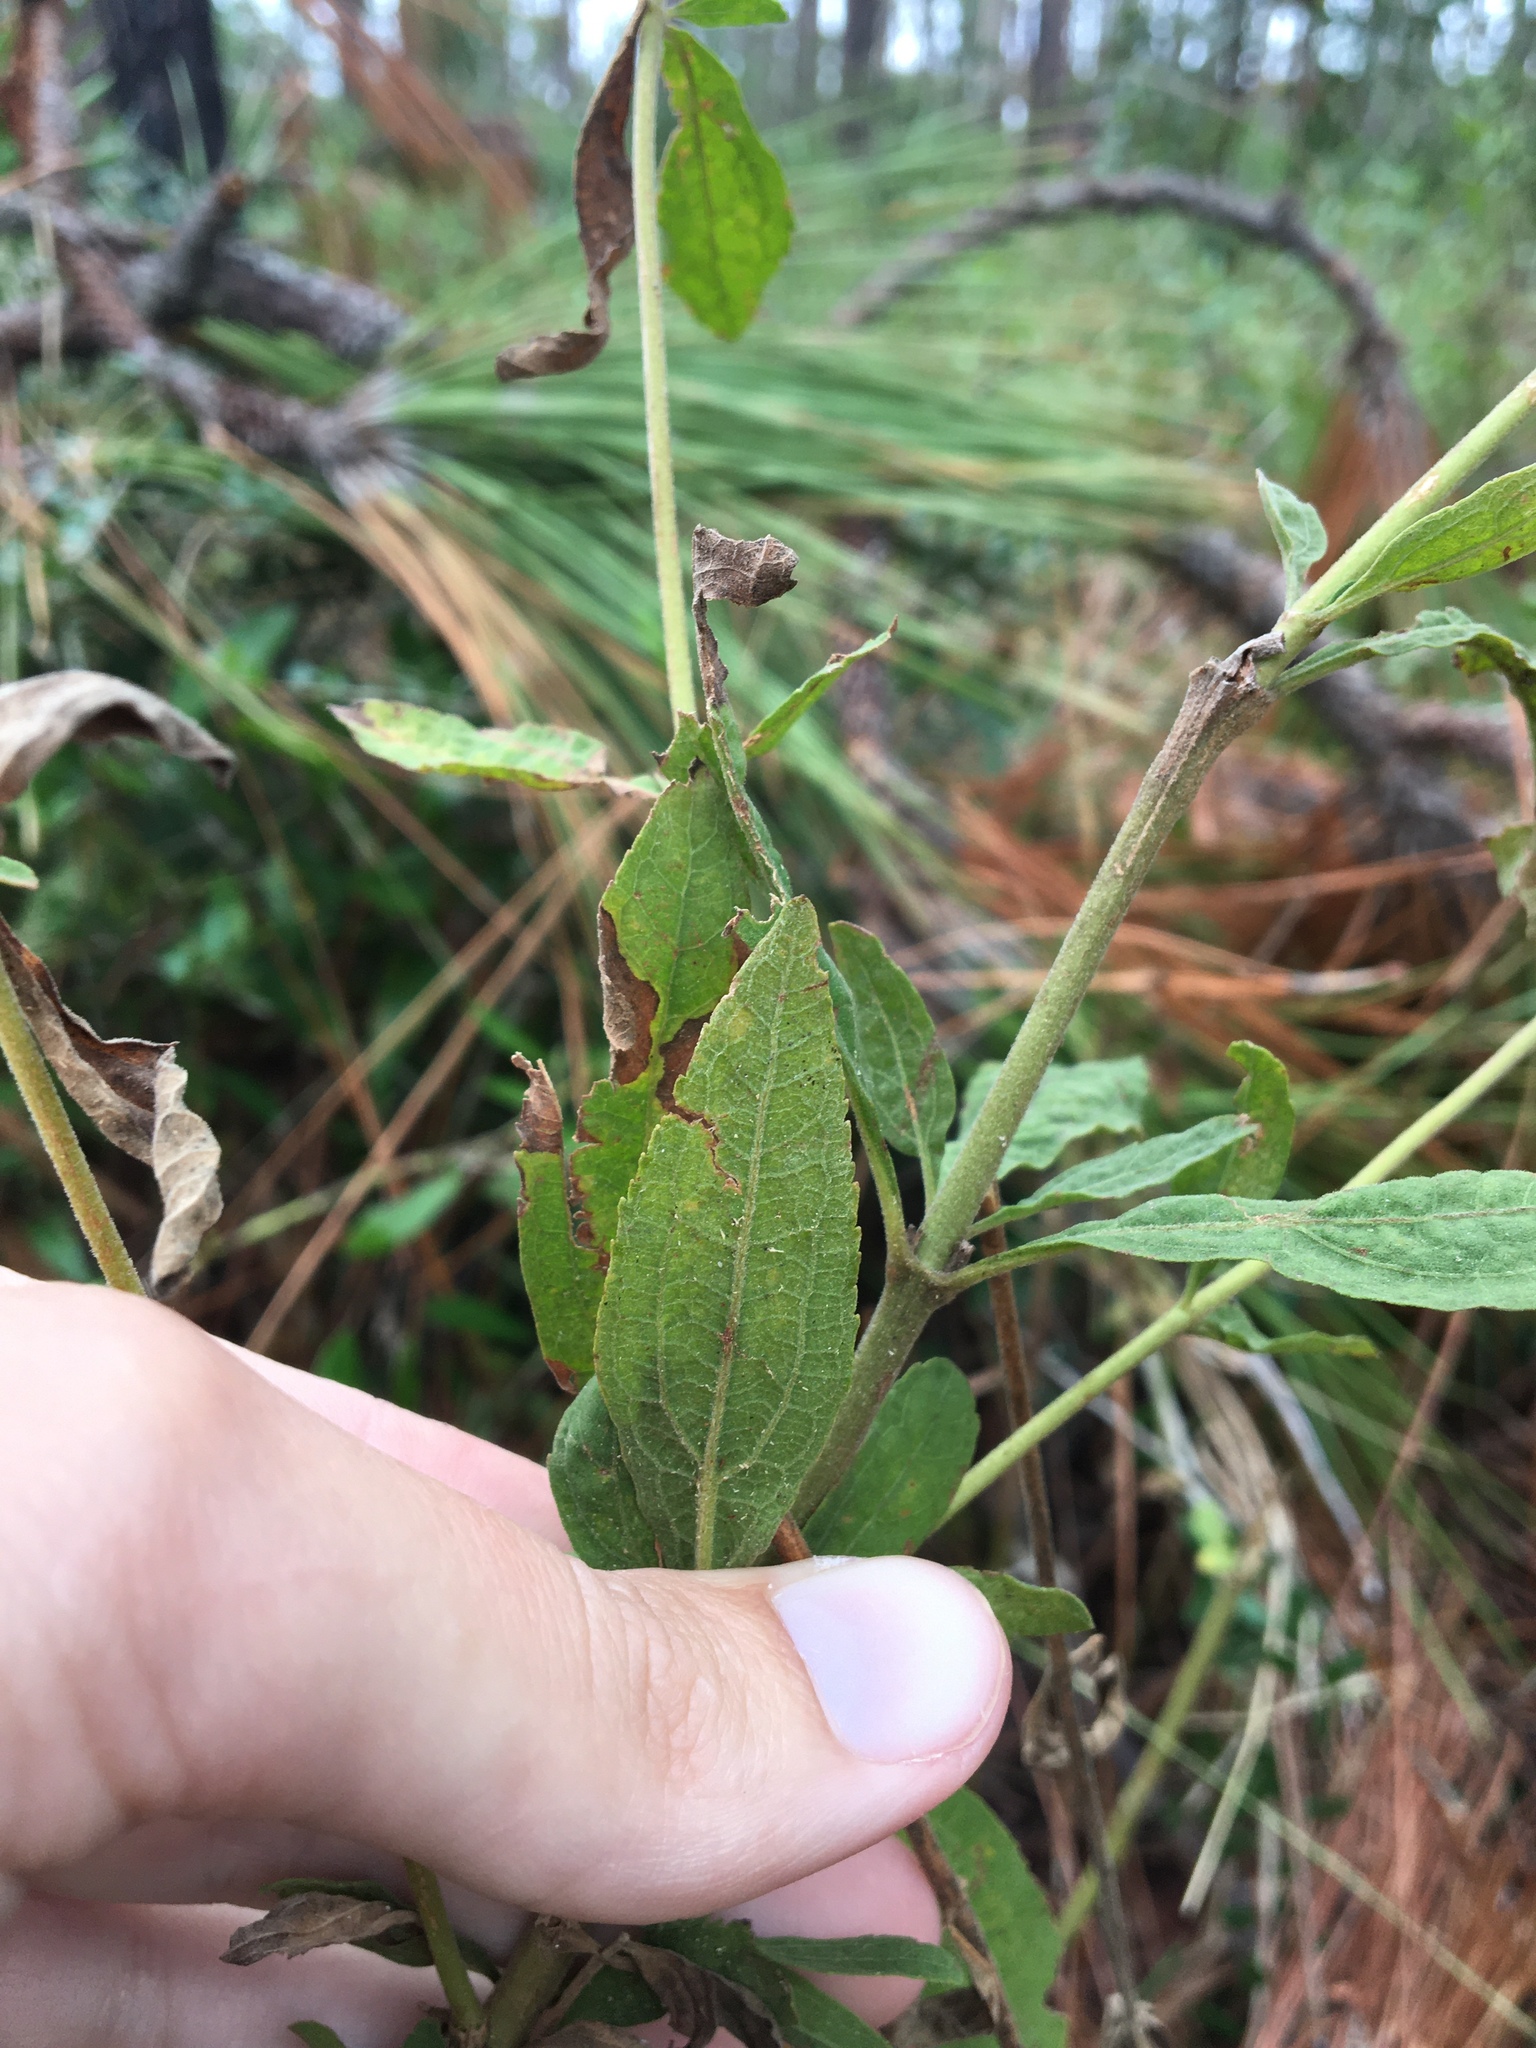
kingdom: Plantae
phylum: Tracheophyta
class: Magnoliopsida
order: Asterales
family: Asteraceae
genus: Eupatorium
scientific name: Eupatorium semiserratum
